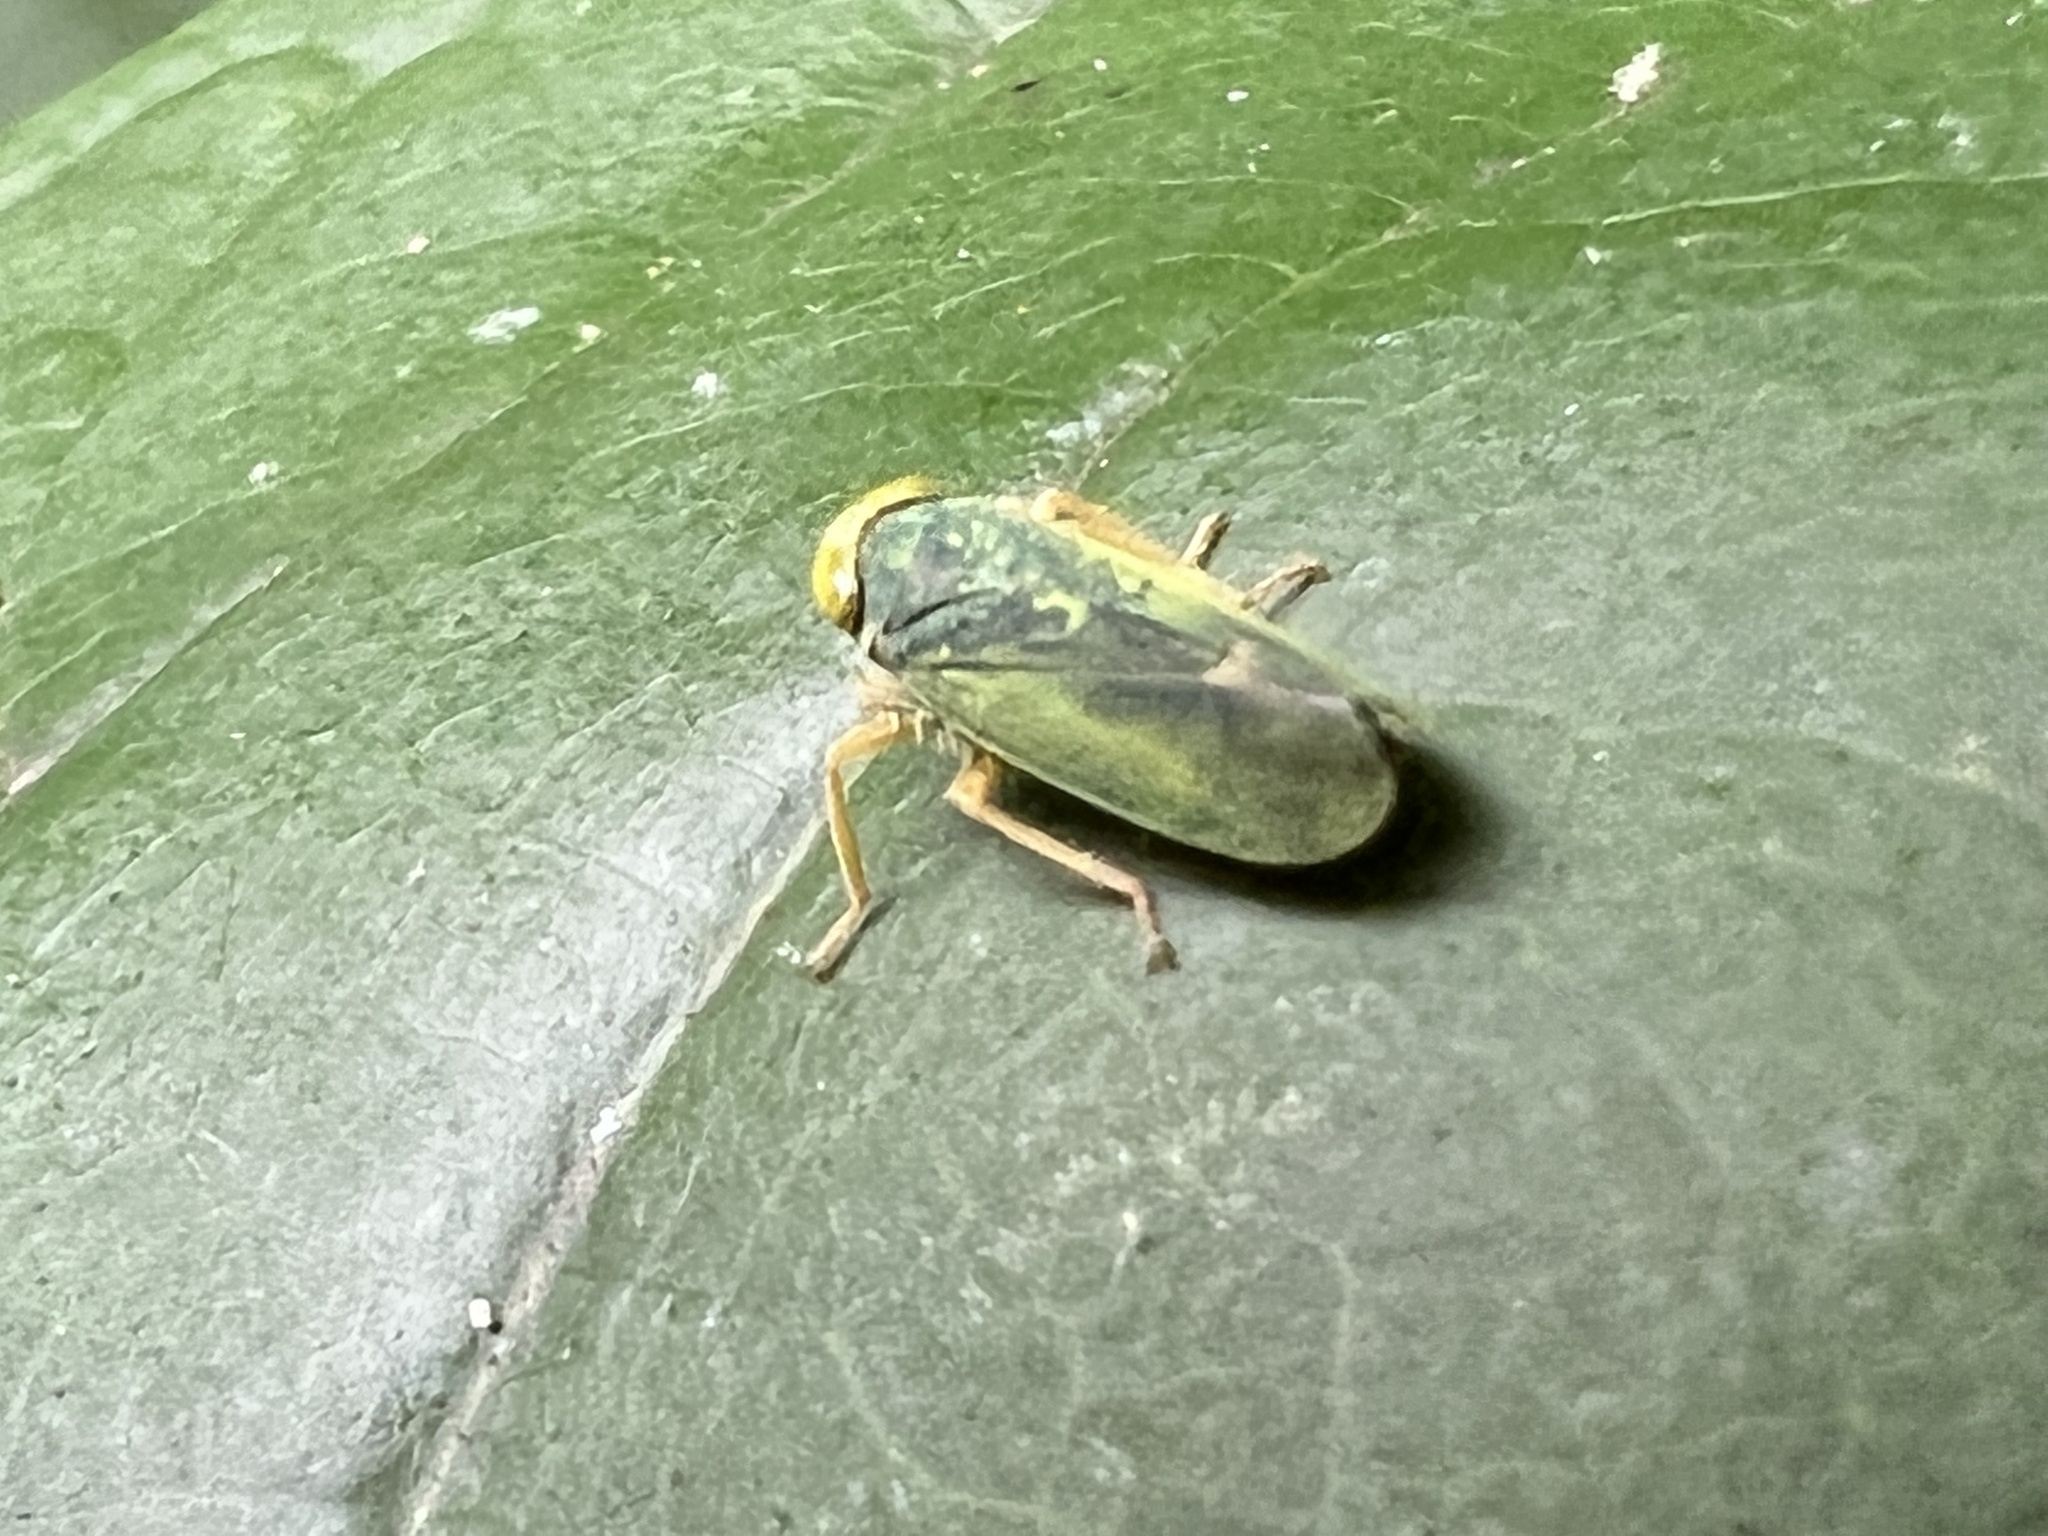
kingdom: Animalia
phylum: Arthropoda
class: Insecta
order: Hemiptera
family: Cicadellidae
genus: Jikradia
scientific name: Jikradia olitoria
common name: Coppery leafhopper
